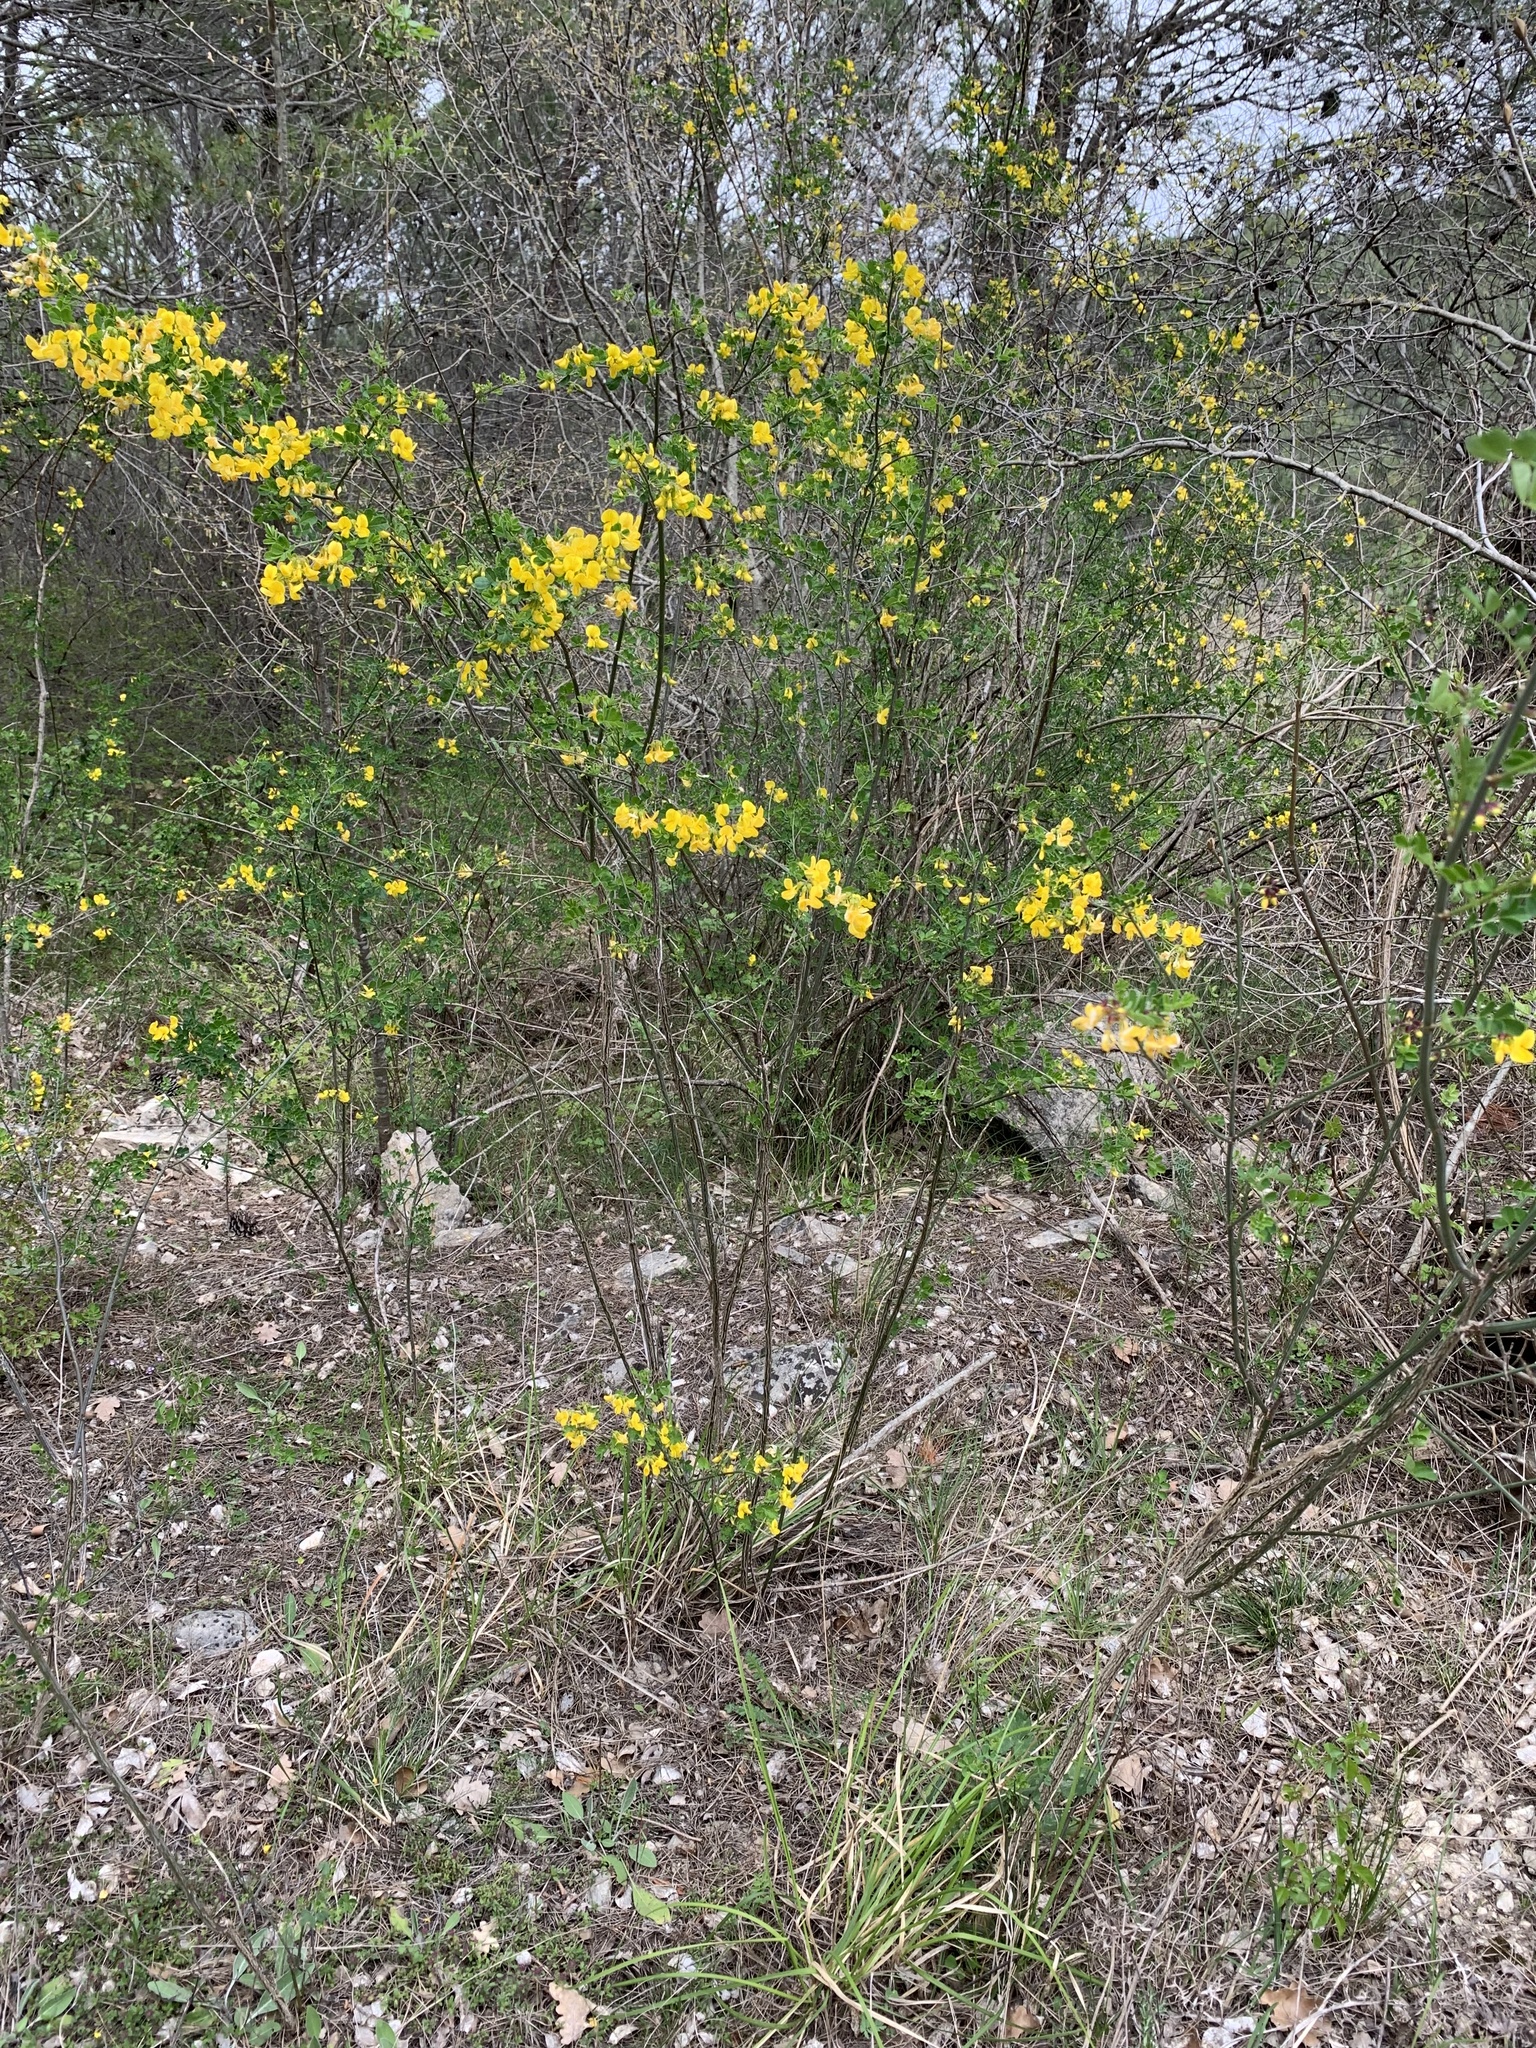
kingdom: Plantae
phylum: Tracheophyta
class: Magnoliopsida
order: Fabales
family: Fabaceae
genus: Hippocrepis
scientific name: Hippocrepis emerus
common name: Scorpion senna
